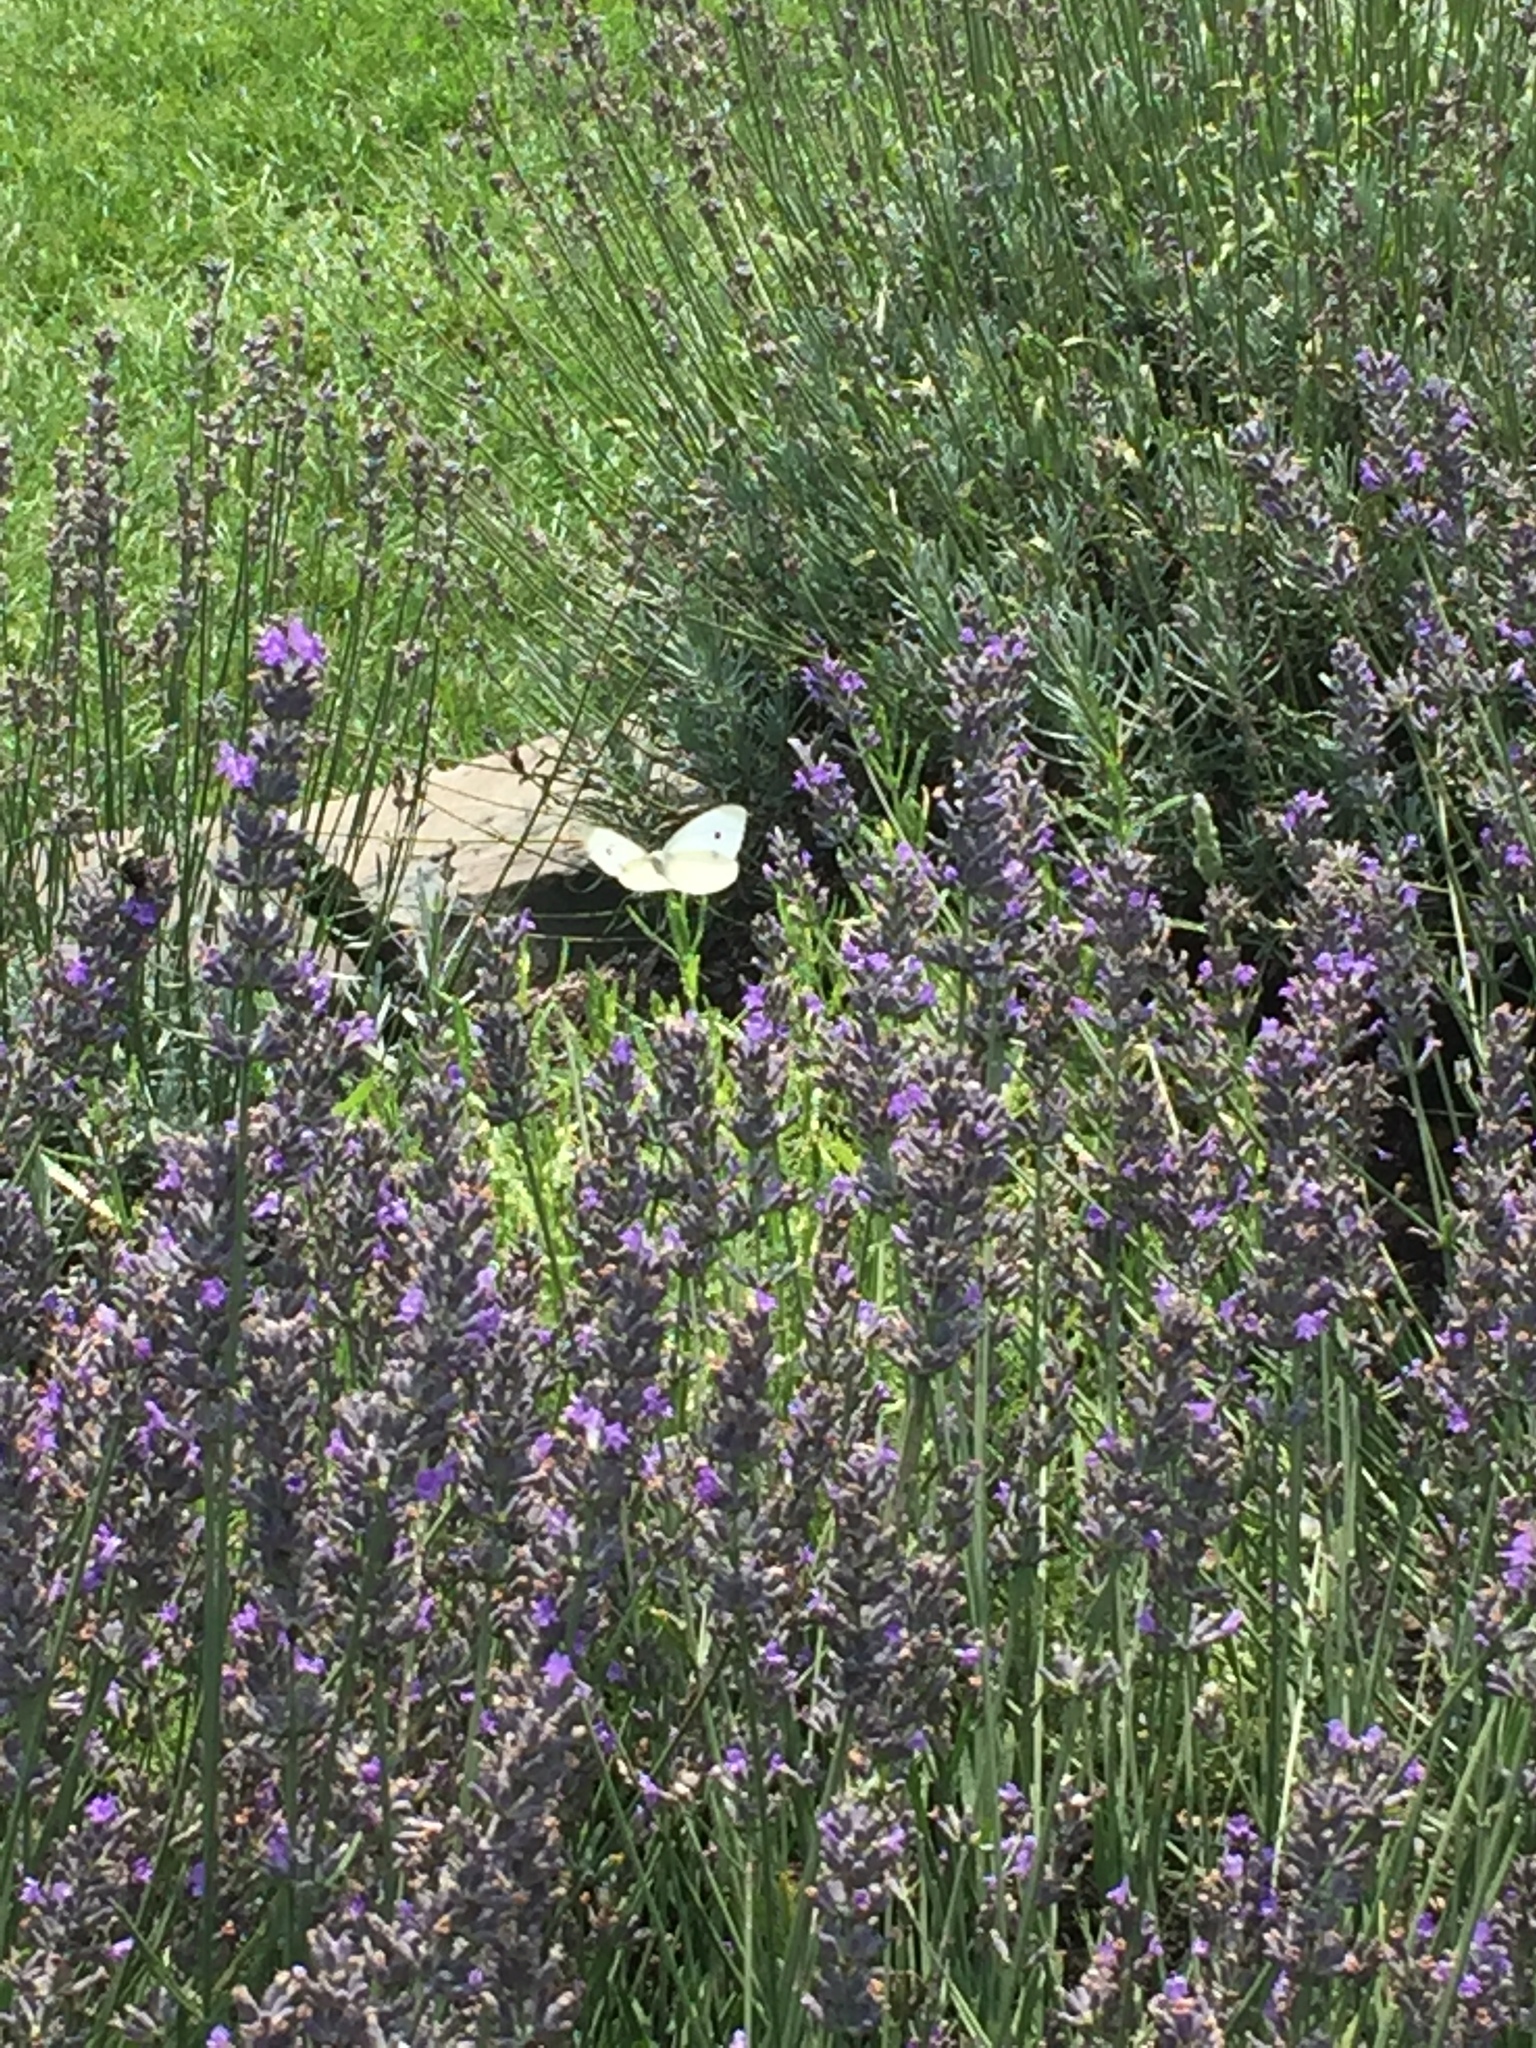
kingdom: Animalia
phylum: Arthropoda
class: Insecta
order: Lepidoptera
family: Pieridae
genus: Pieris
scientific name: Pieris rapae
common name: Small white
